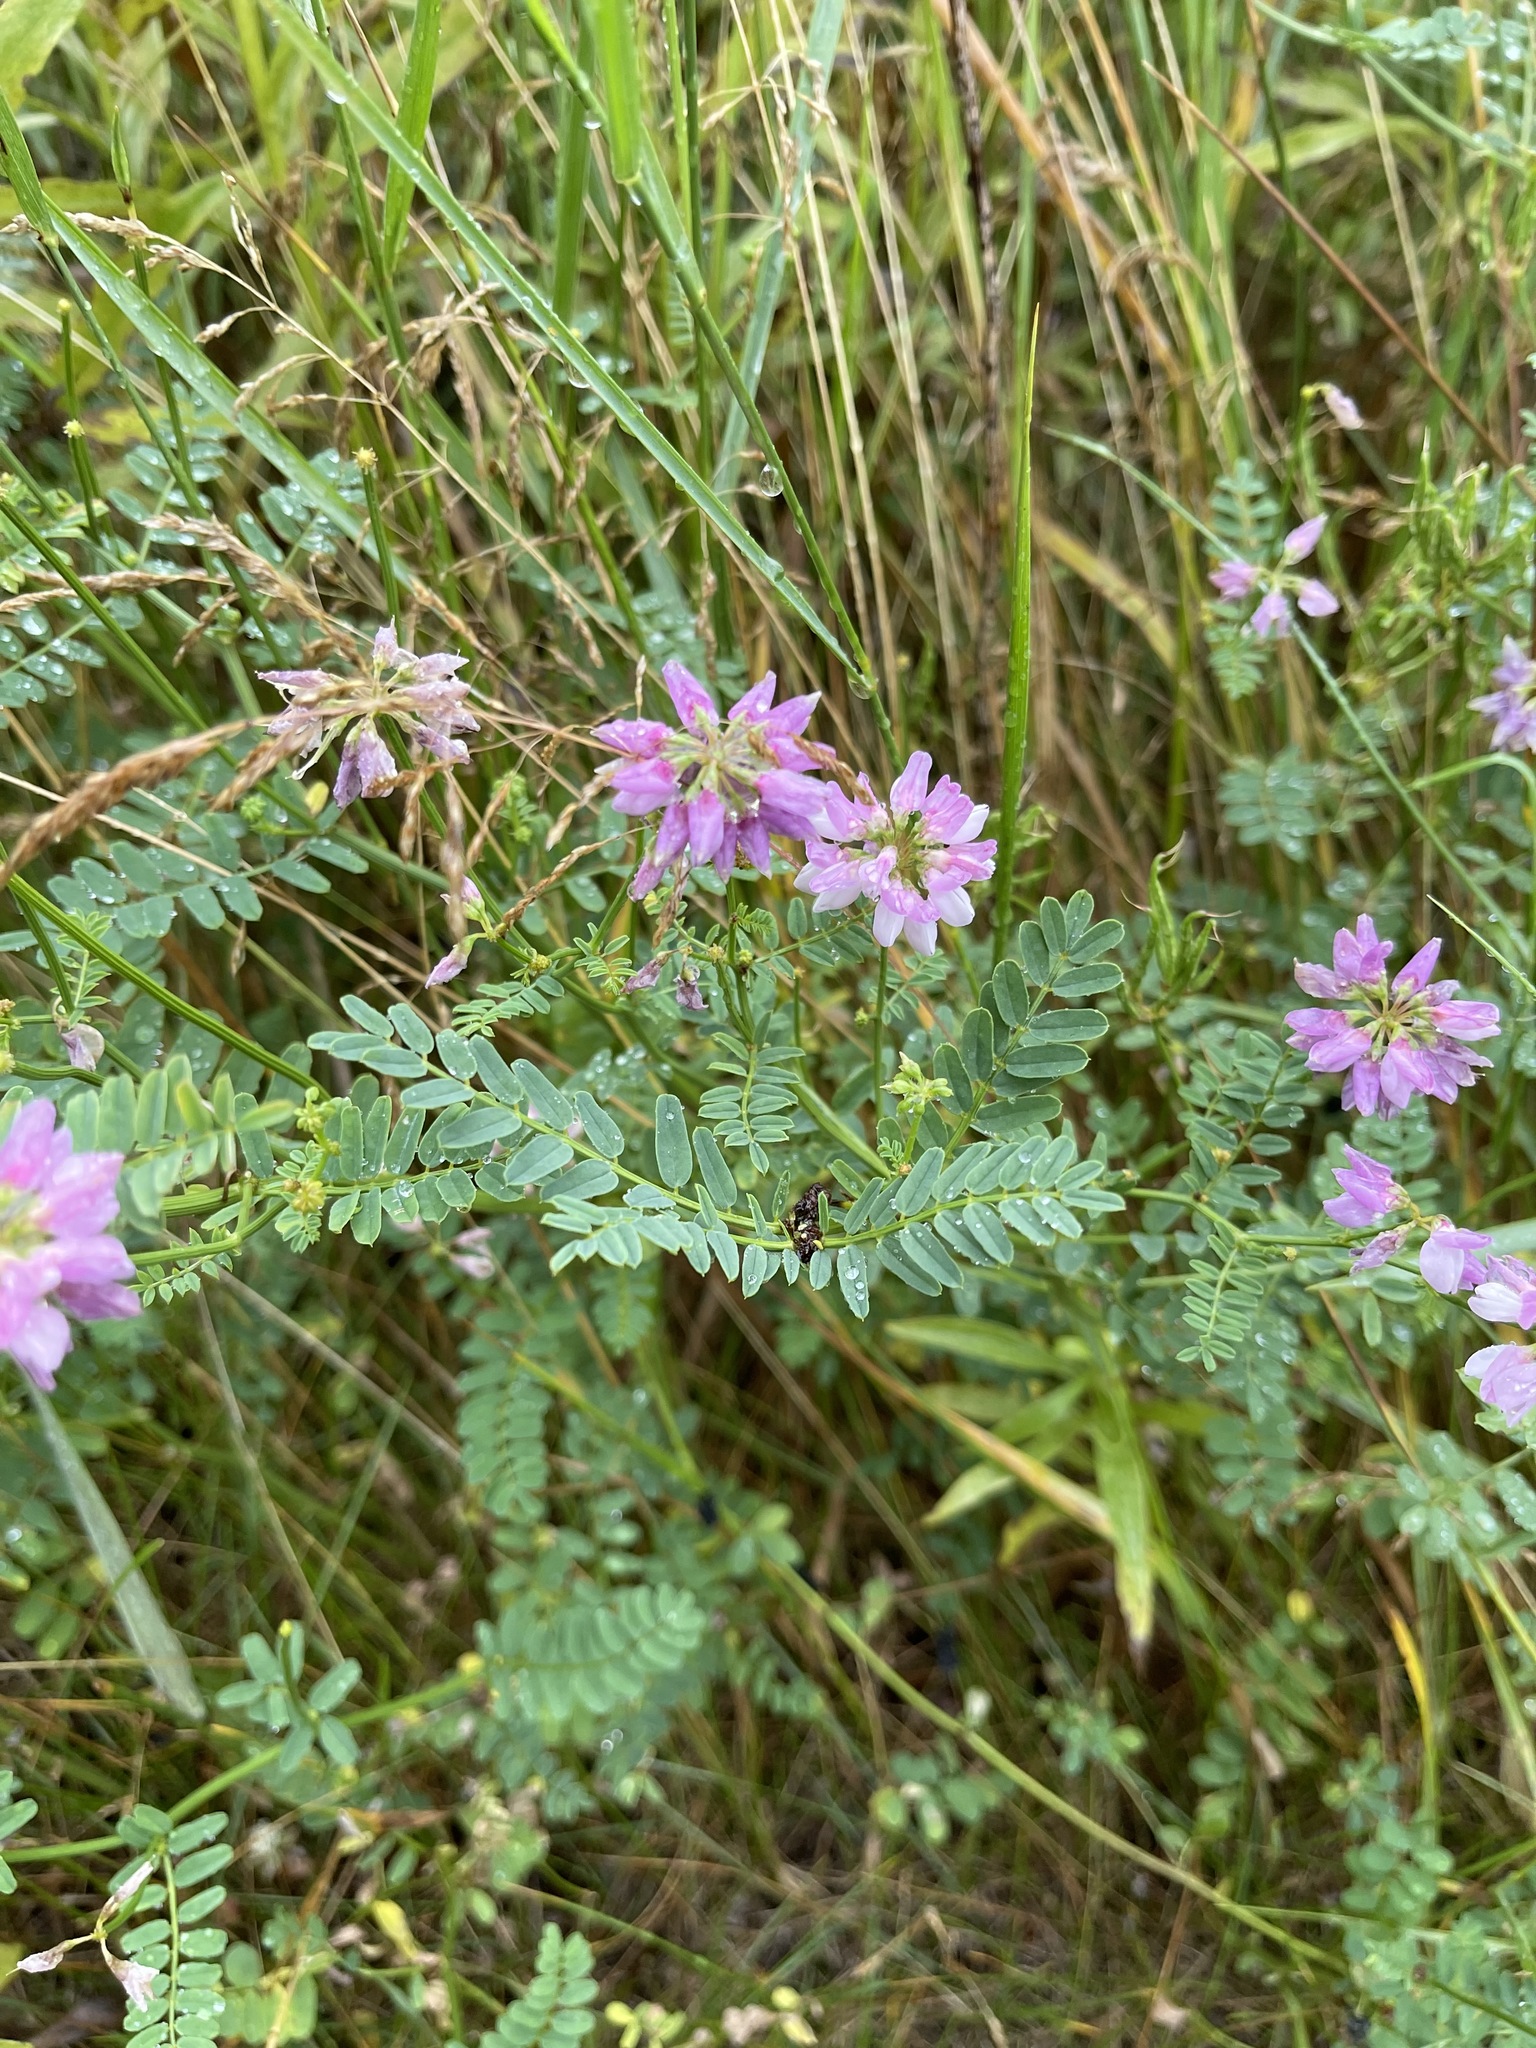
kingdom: Plantae
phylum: Tracheophyta
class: Magnoliopsida
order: Fabales
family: Fabaceae
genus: Coronilla
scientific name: Coronilla varia
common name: Crownvetch
